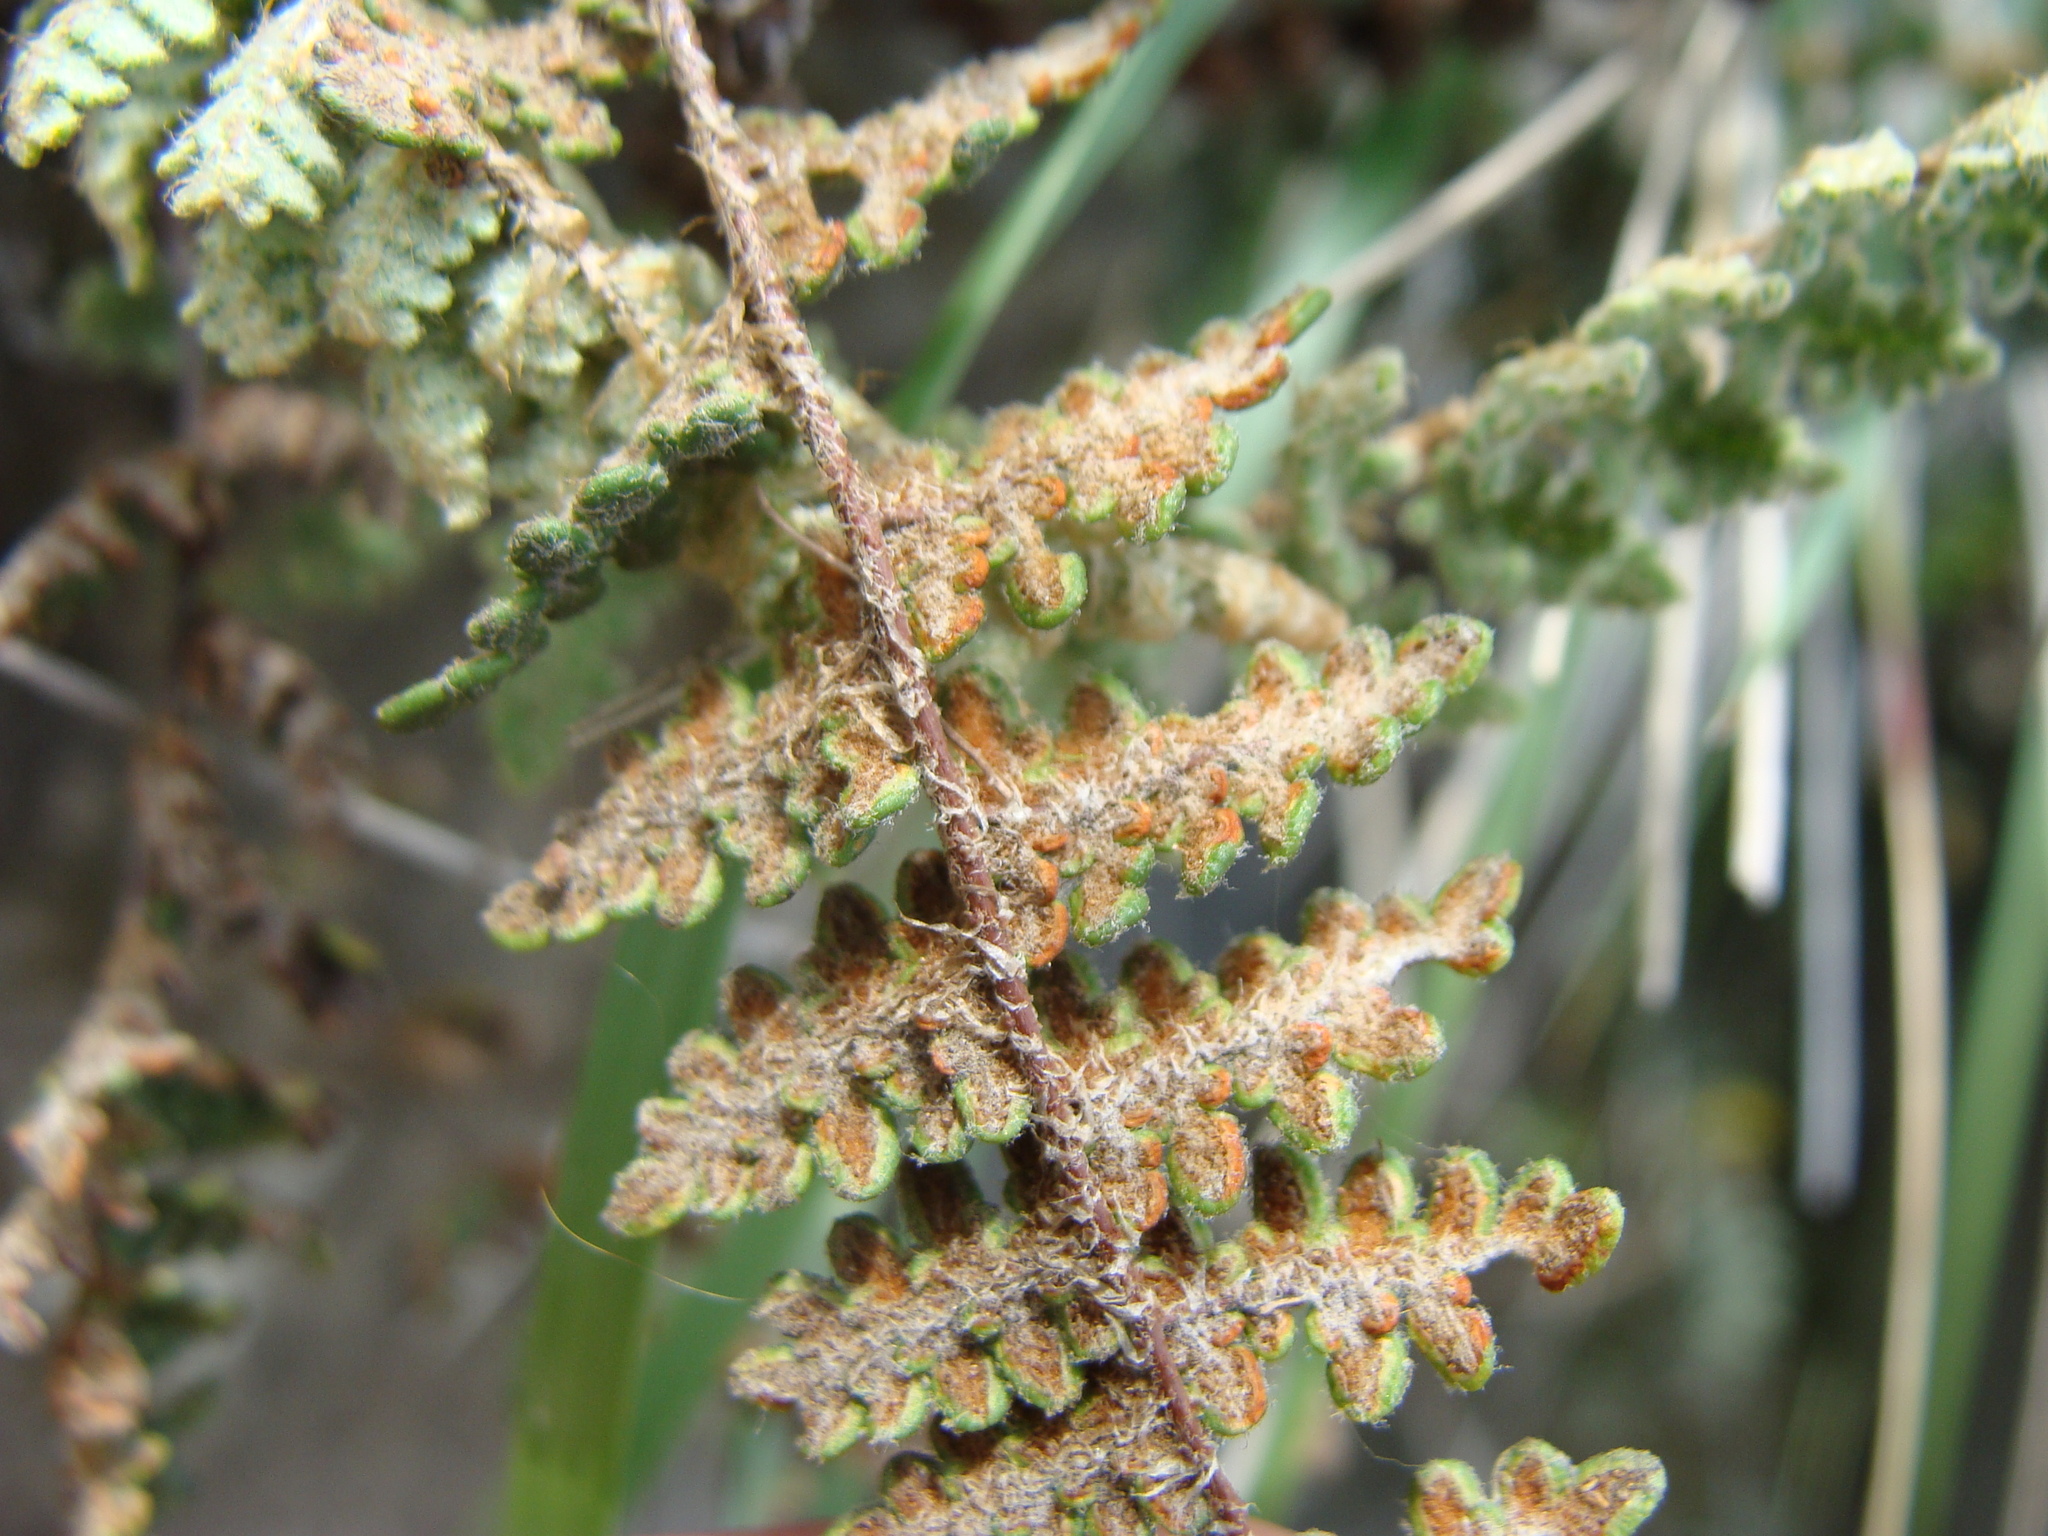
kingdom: Plantae
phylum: Tracheophyta
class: Polypodiopsida
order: Polypodiales
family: Pteridaceae
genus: Myriopteris
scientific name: Myriopteris rufa
